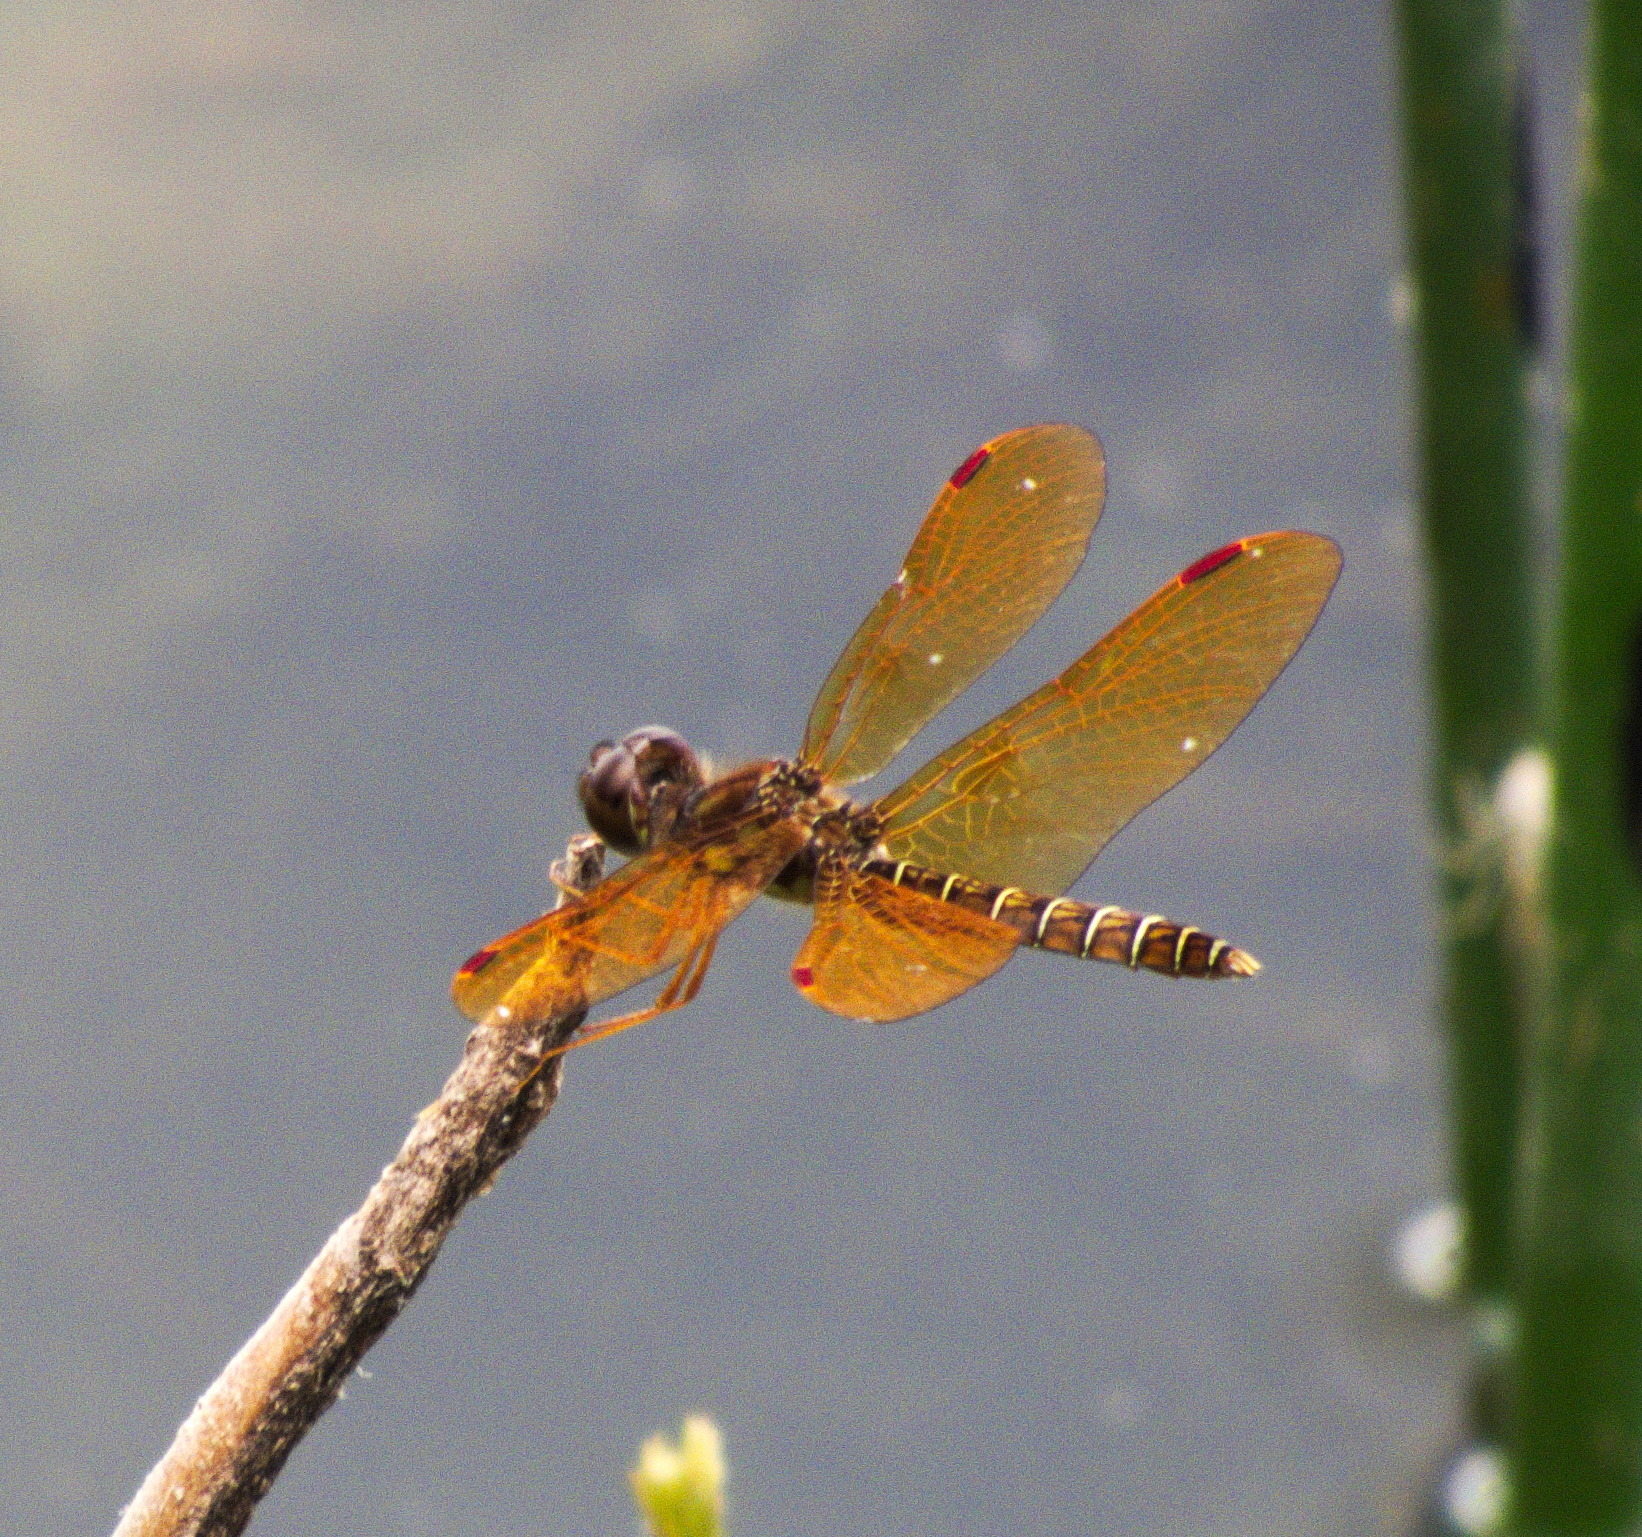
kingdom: Animalia
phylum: Arthropoda
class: Insecta
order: Odonata
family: Libellulidae
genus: Perithemis
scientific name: Perithemis tenera
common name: Eastern amberwing
